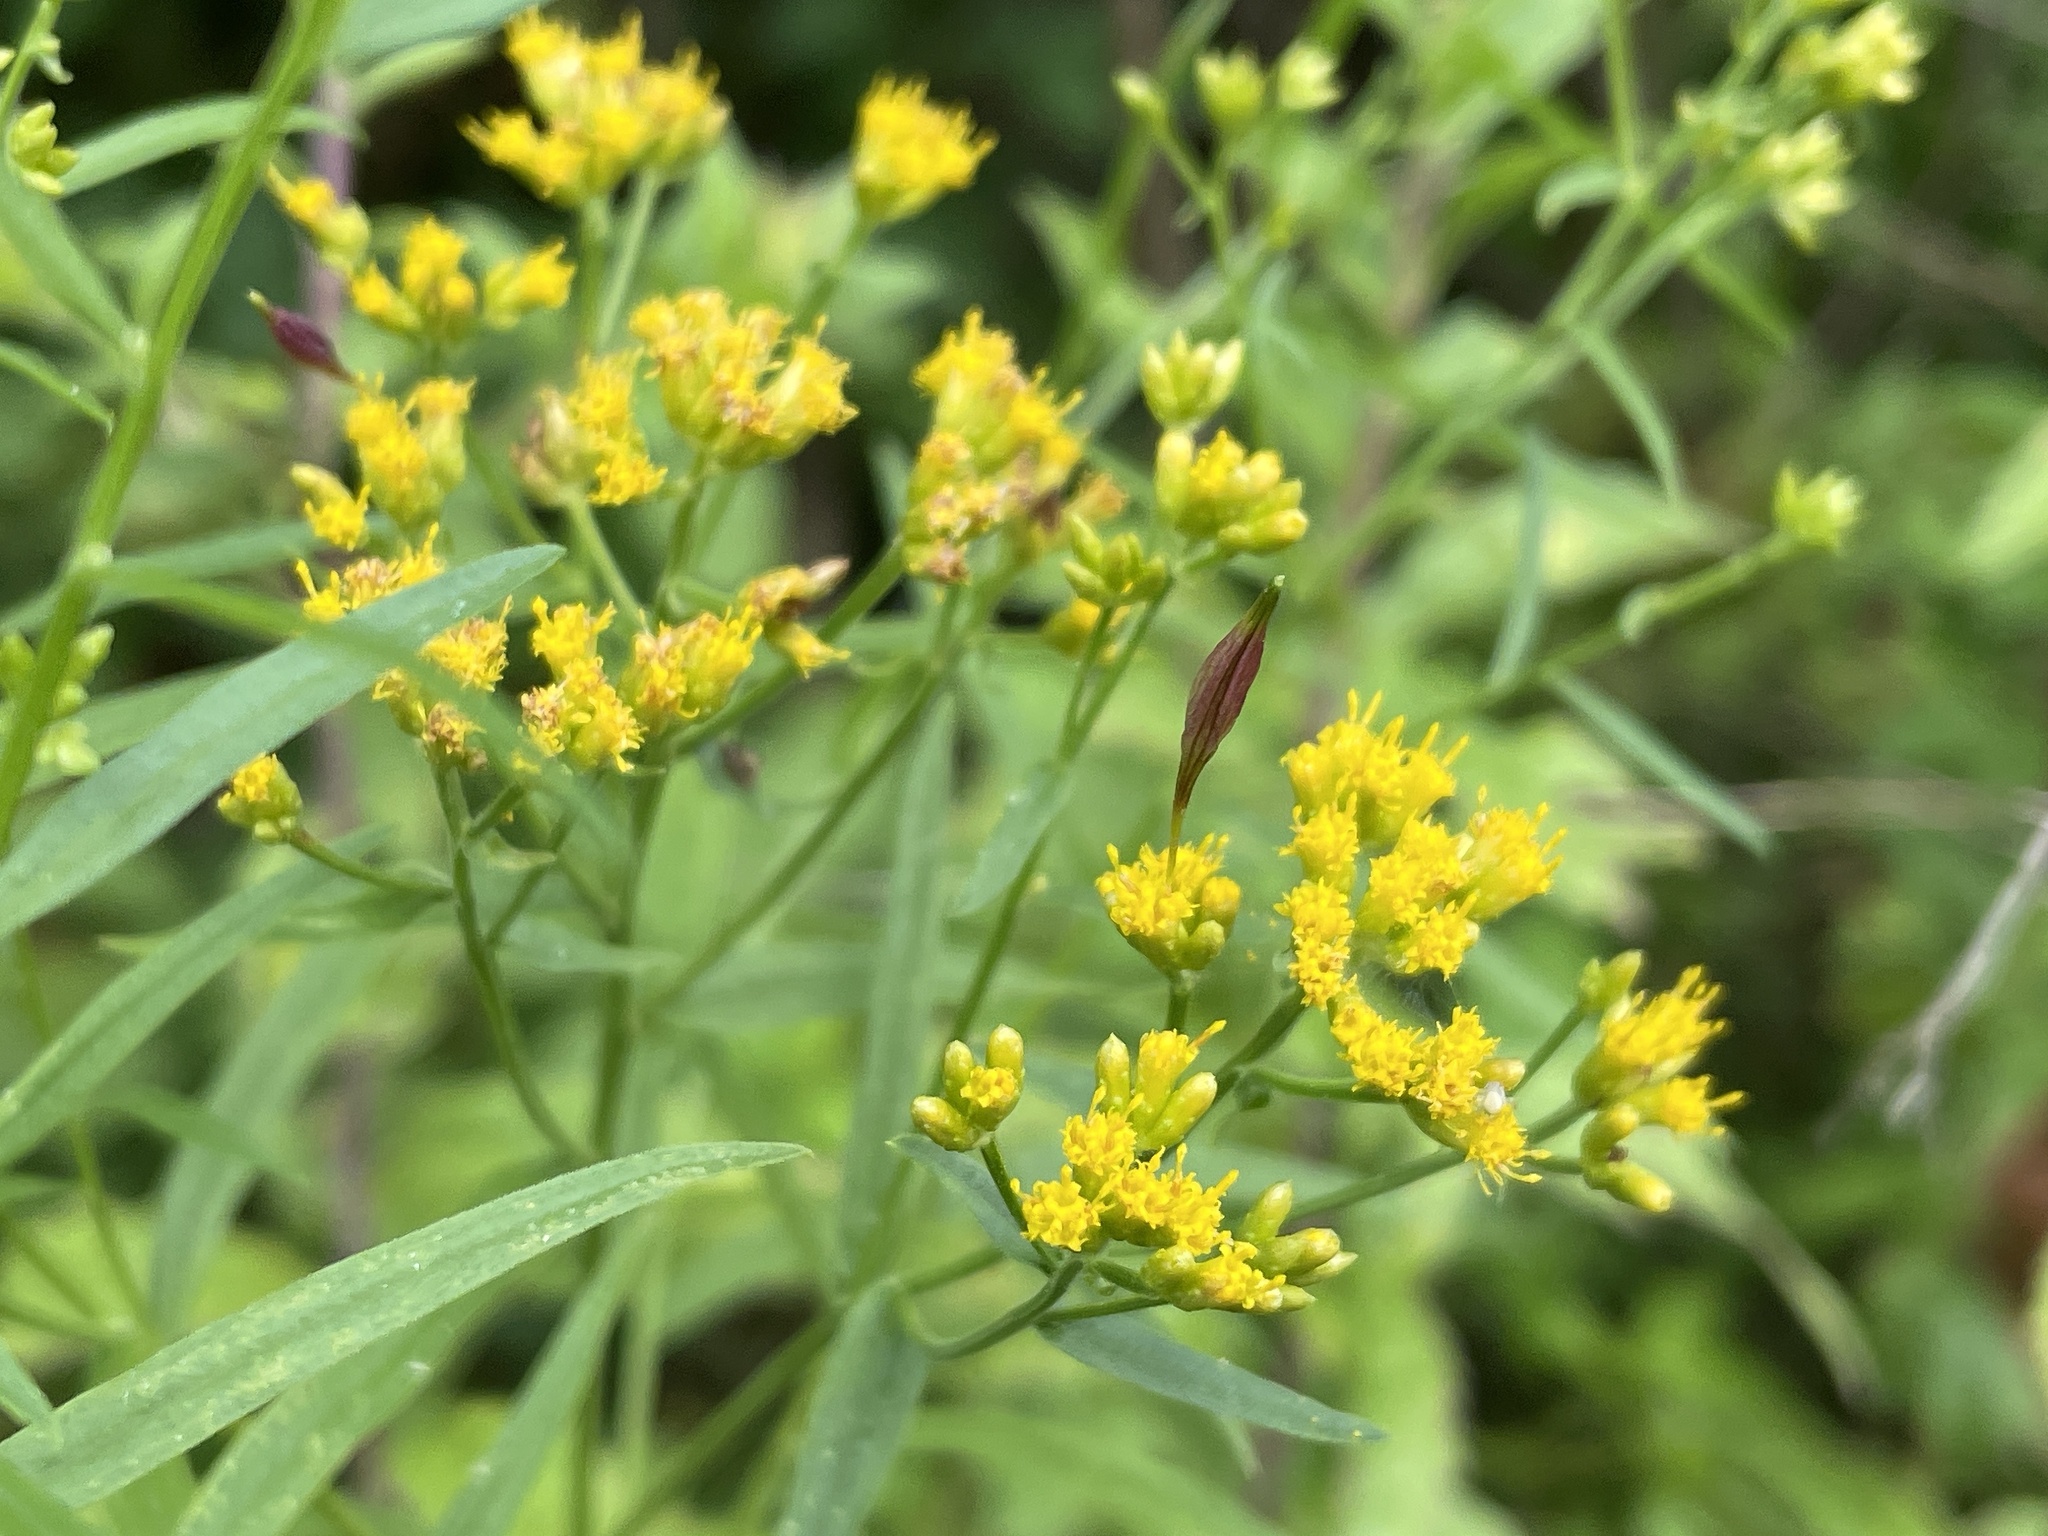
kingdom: Animalia
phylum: Arthropoda
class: Insecta
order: Diptera
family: Cecidomyiidae
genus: Rhopalomyia
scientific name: Rhopalomyia pedicellata
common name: Goldentop pedicellate gall midge
